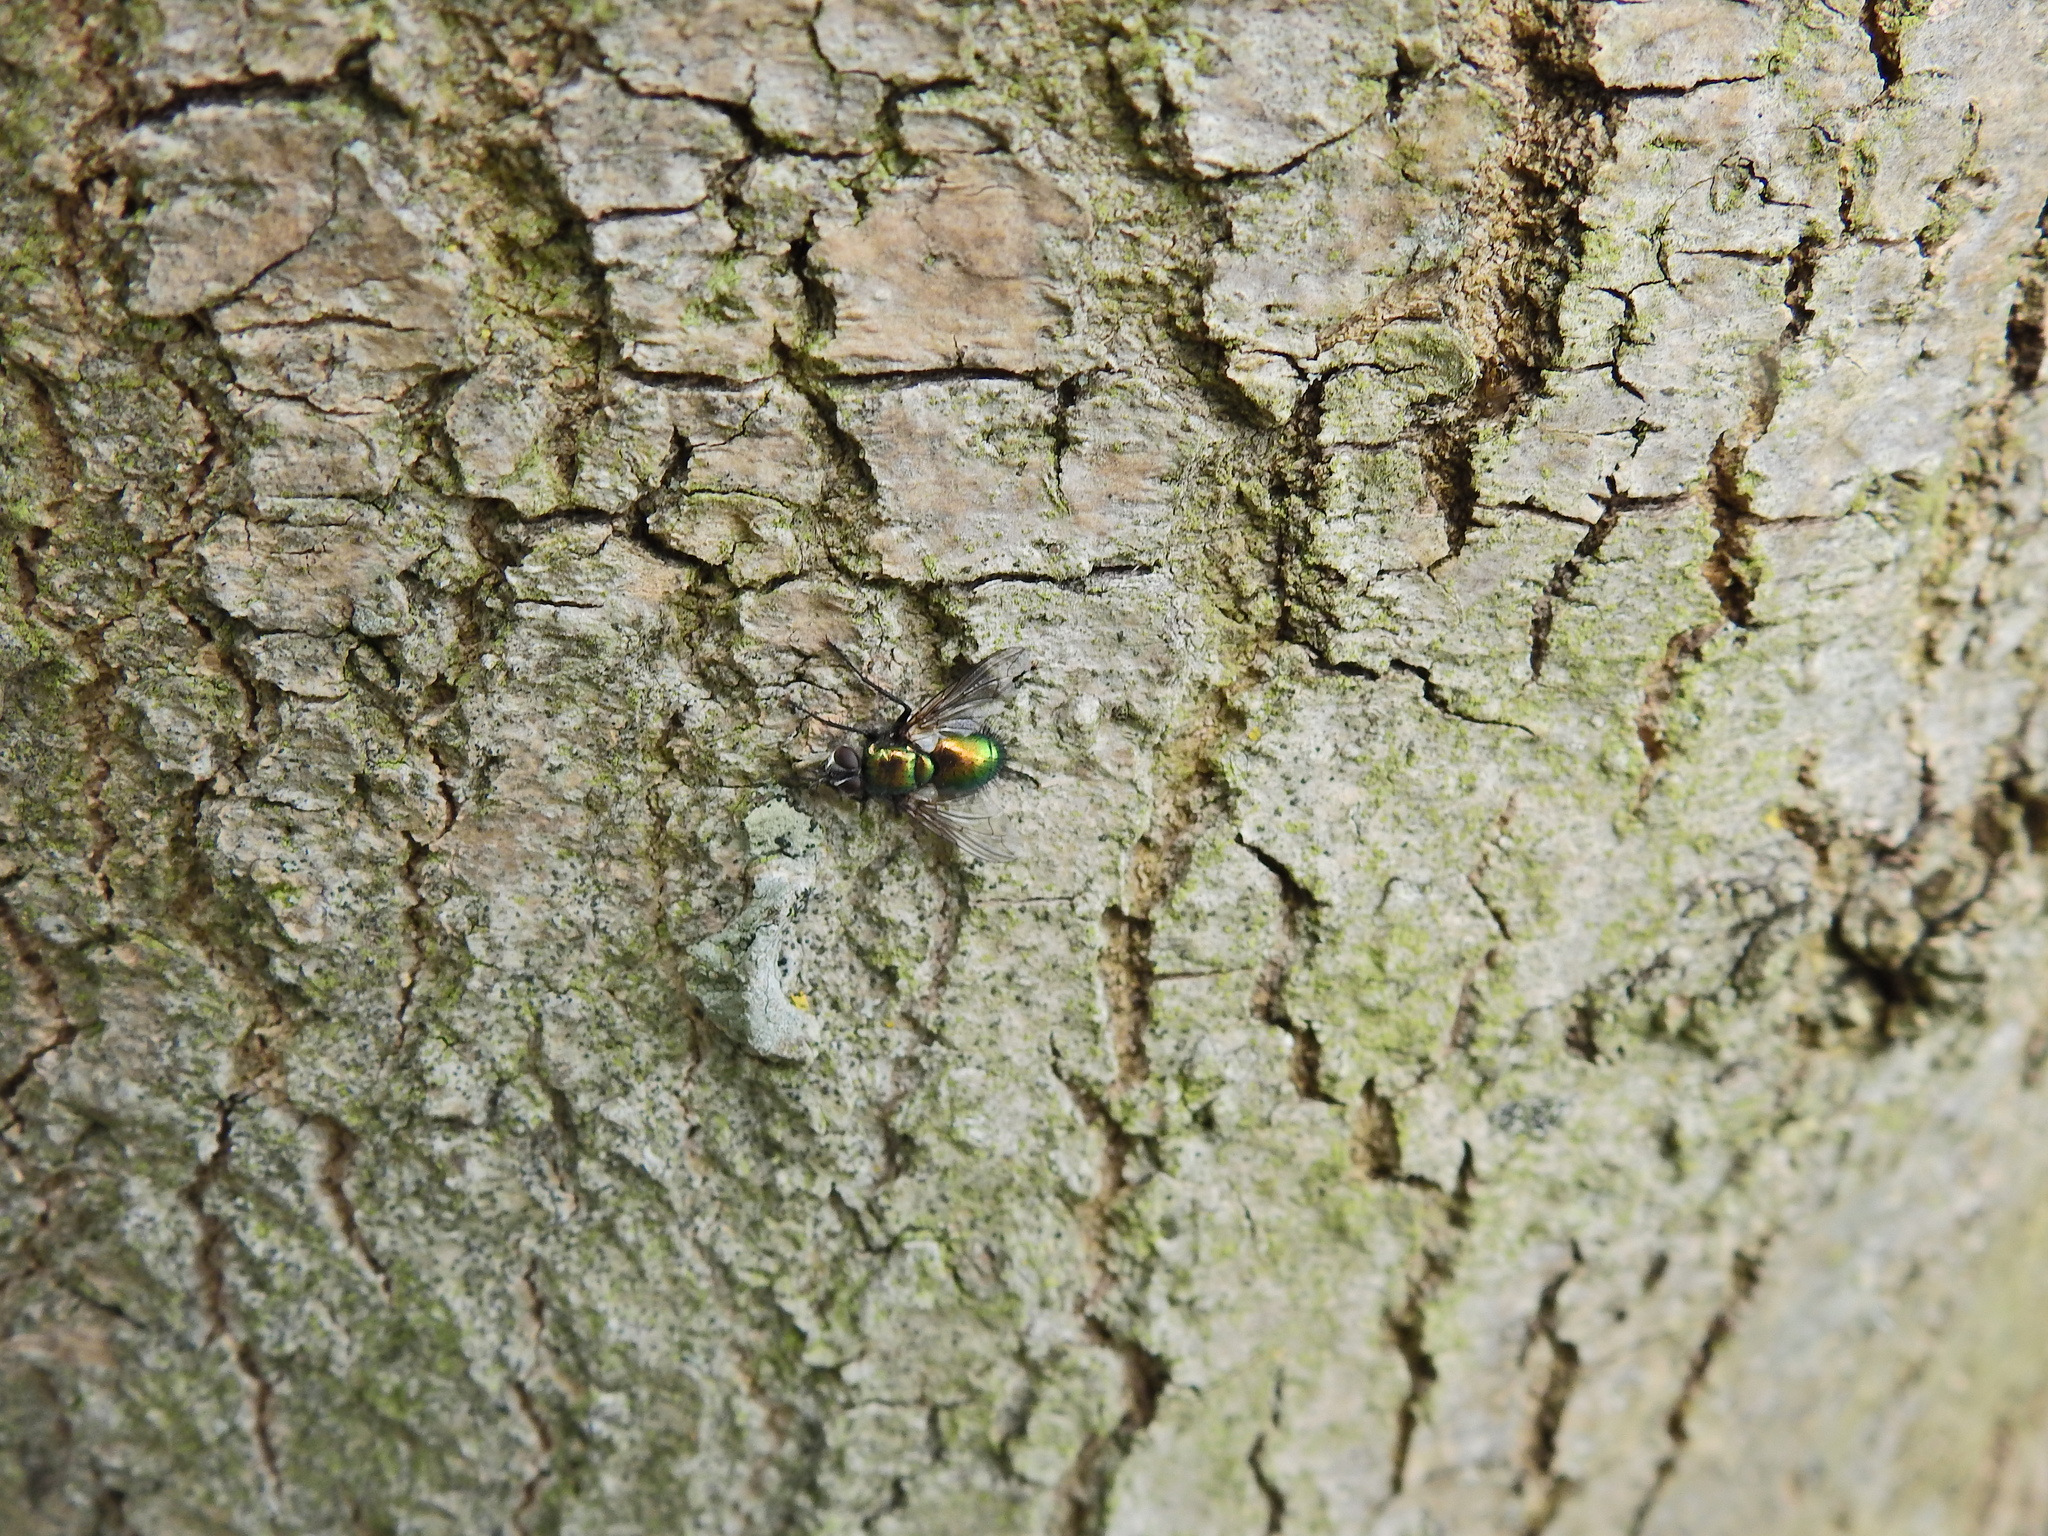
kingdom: Animalia
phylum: Arthropoda
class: Insecta
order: Diptera
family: Tachinidae
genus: Gymnocheta
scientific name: Gymnocheta viridis
